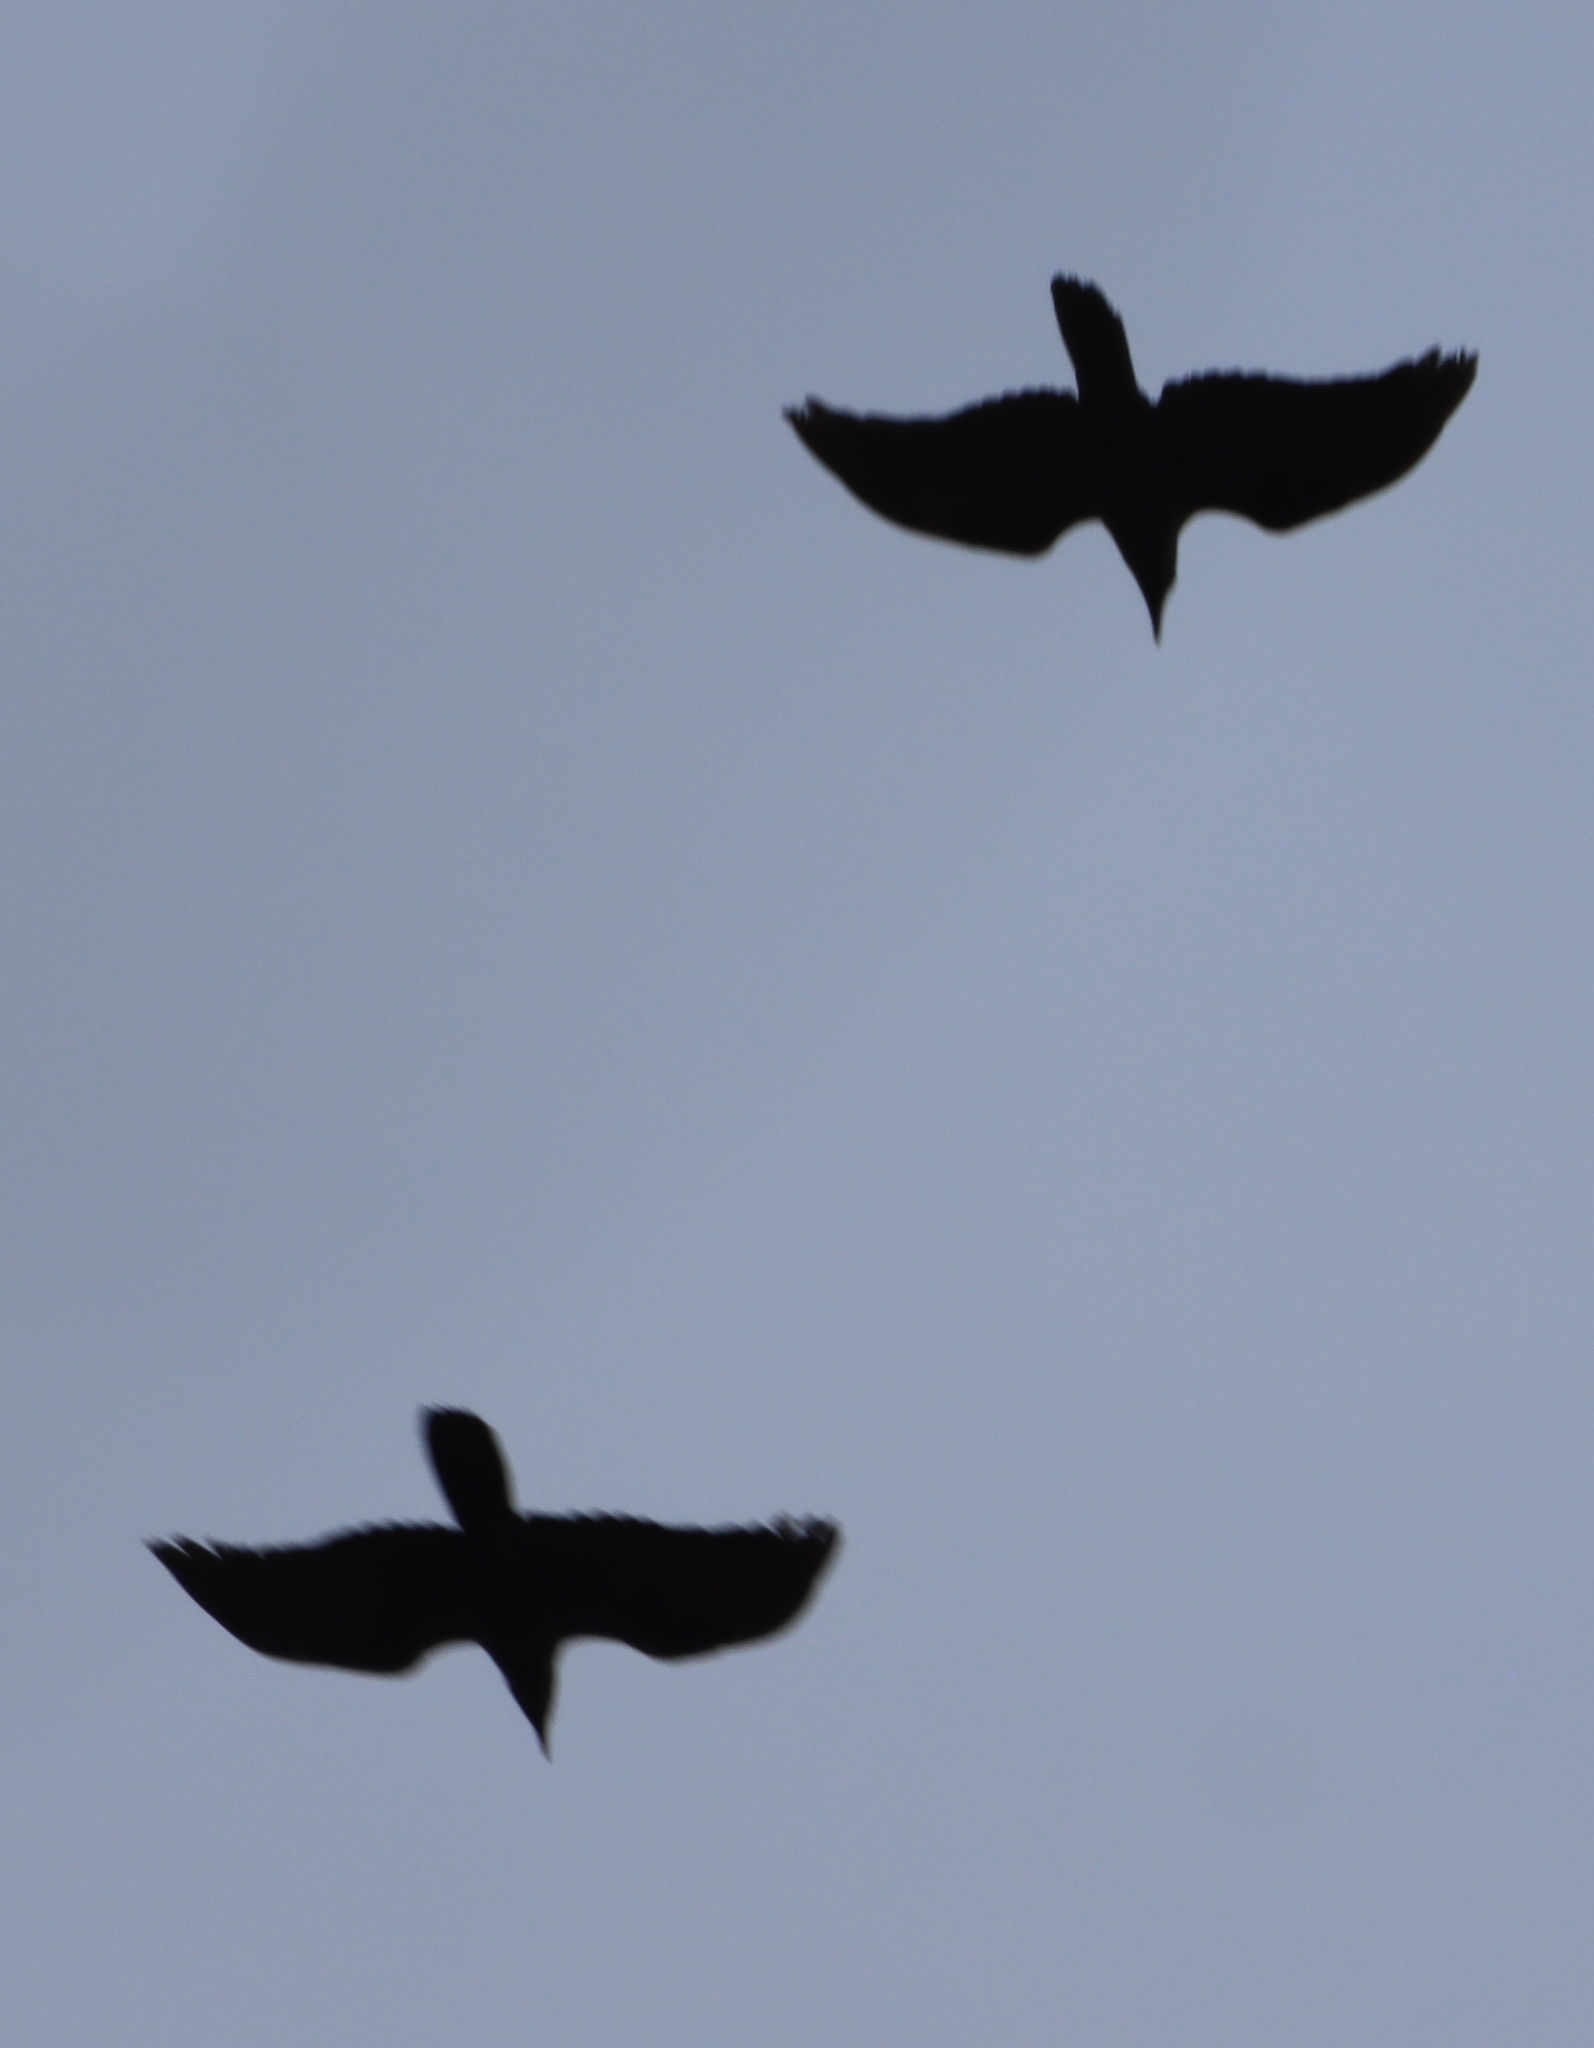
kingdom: Animalia
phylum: Chordata
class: Aves
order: Passeriformes
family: Corvidae
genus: Corvus
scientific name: Corvus corax
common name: Common raven
